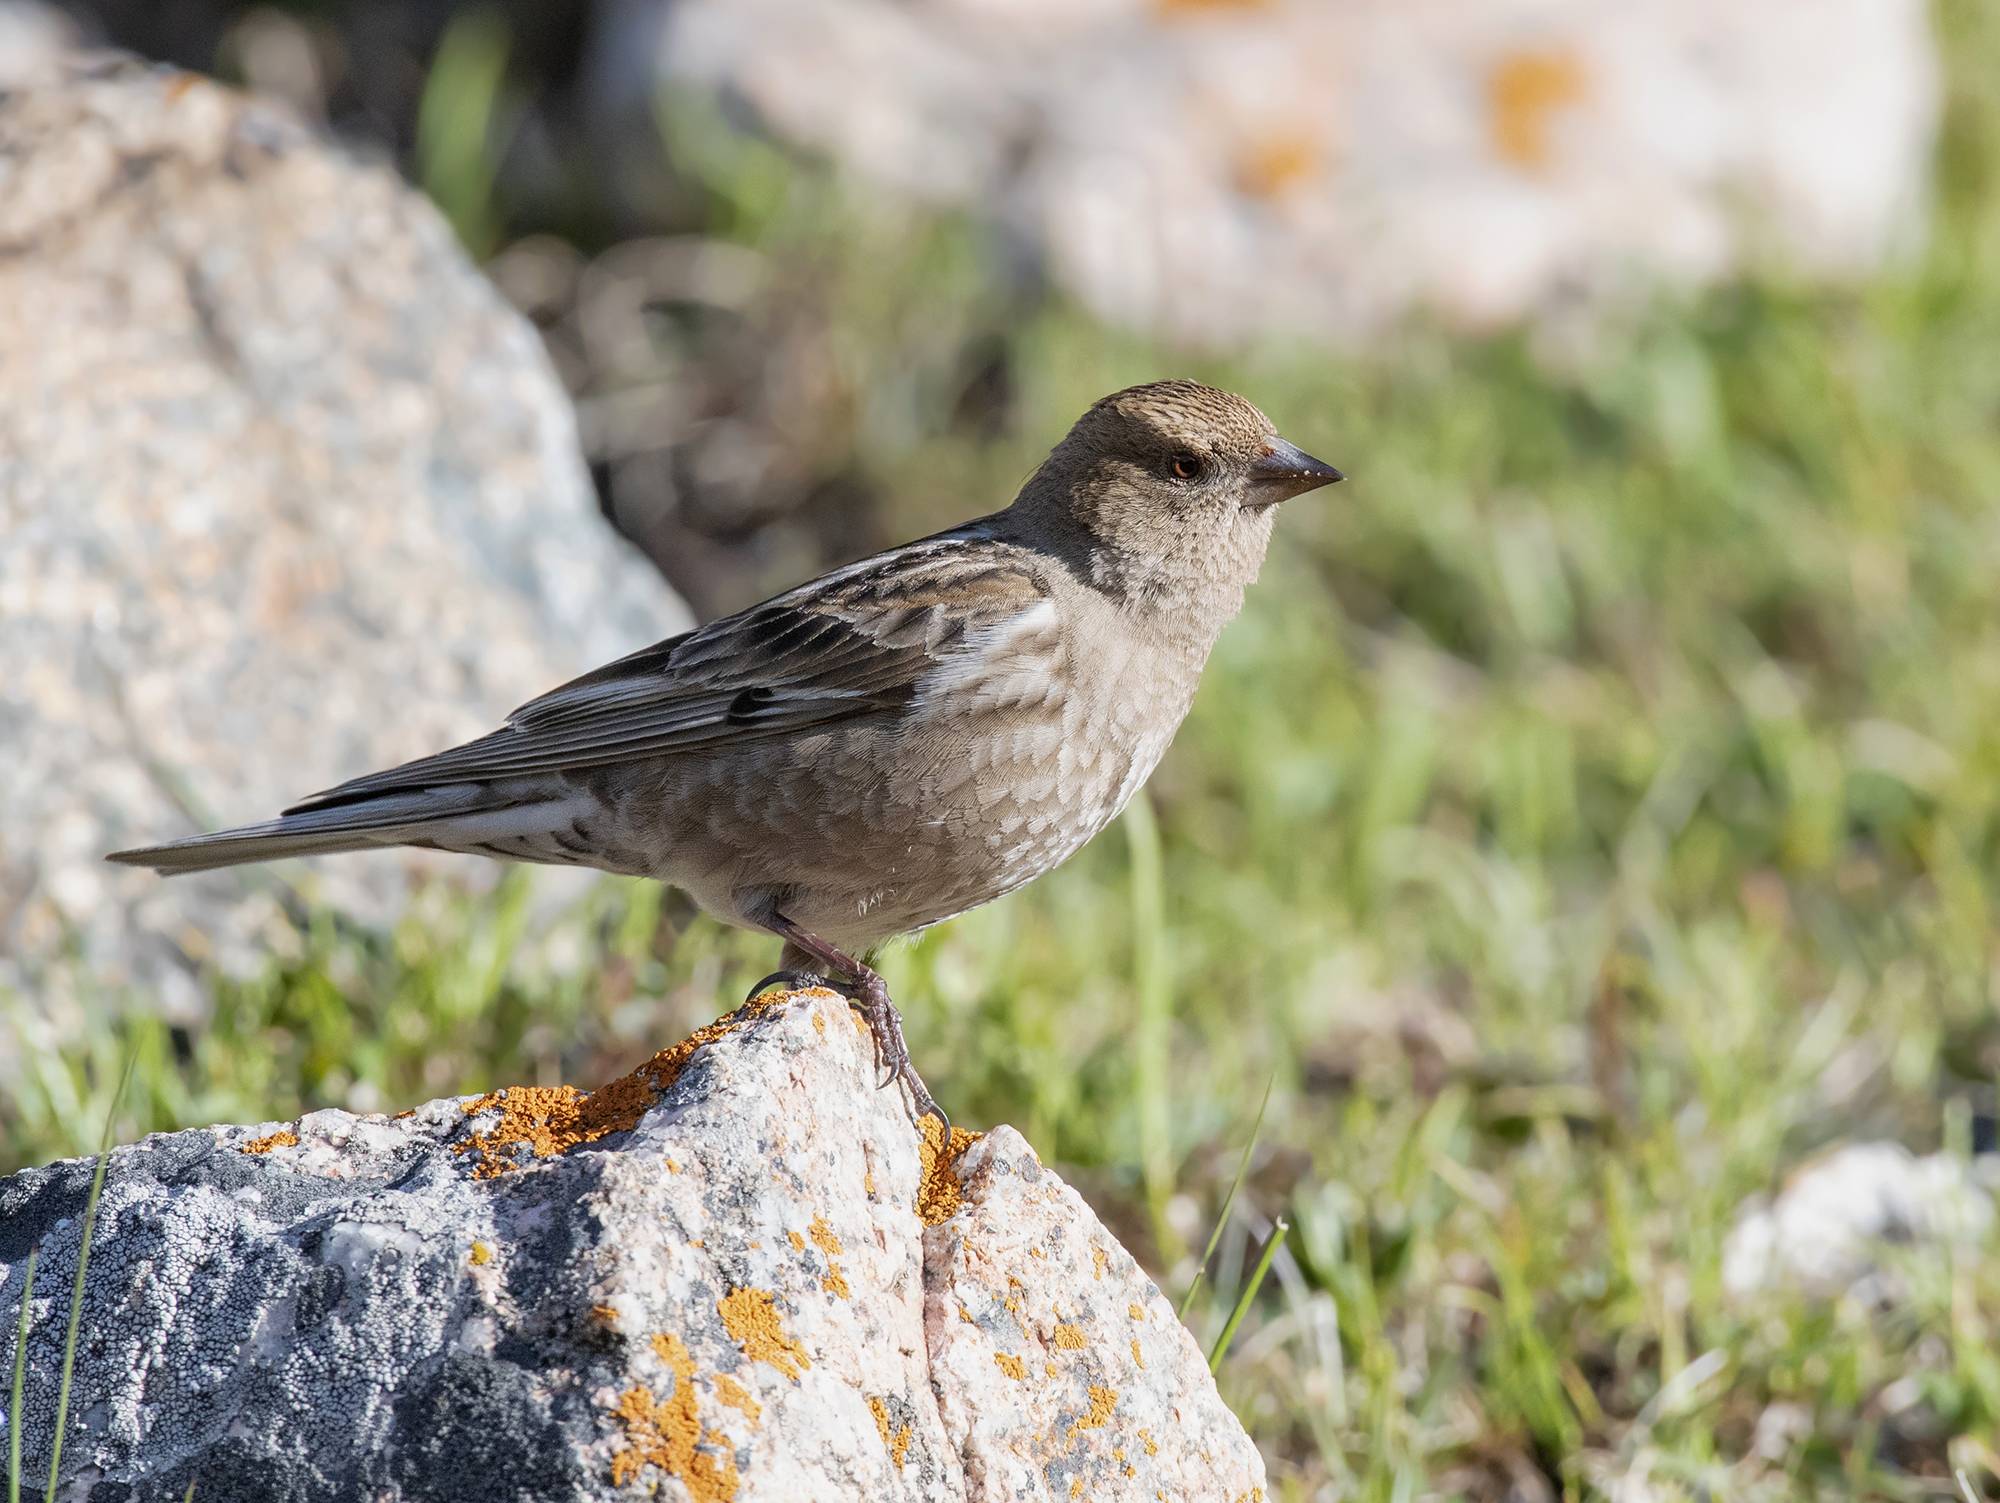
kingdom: Animalia
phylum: Chordata
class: Aves
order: Passeriformes
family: Fringillidae
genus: Leucosticte
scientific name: Leucosticte nemoricola
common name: Plain mountain finch
